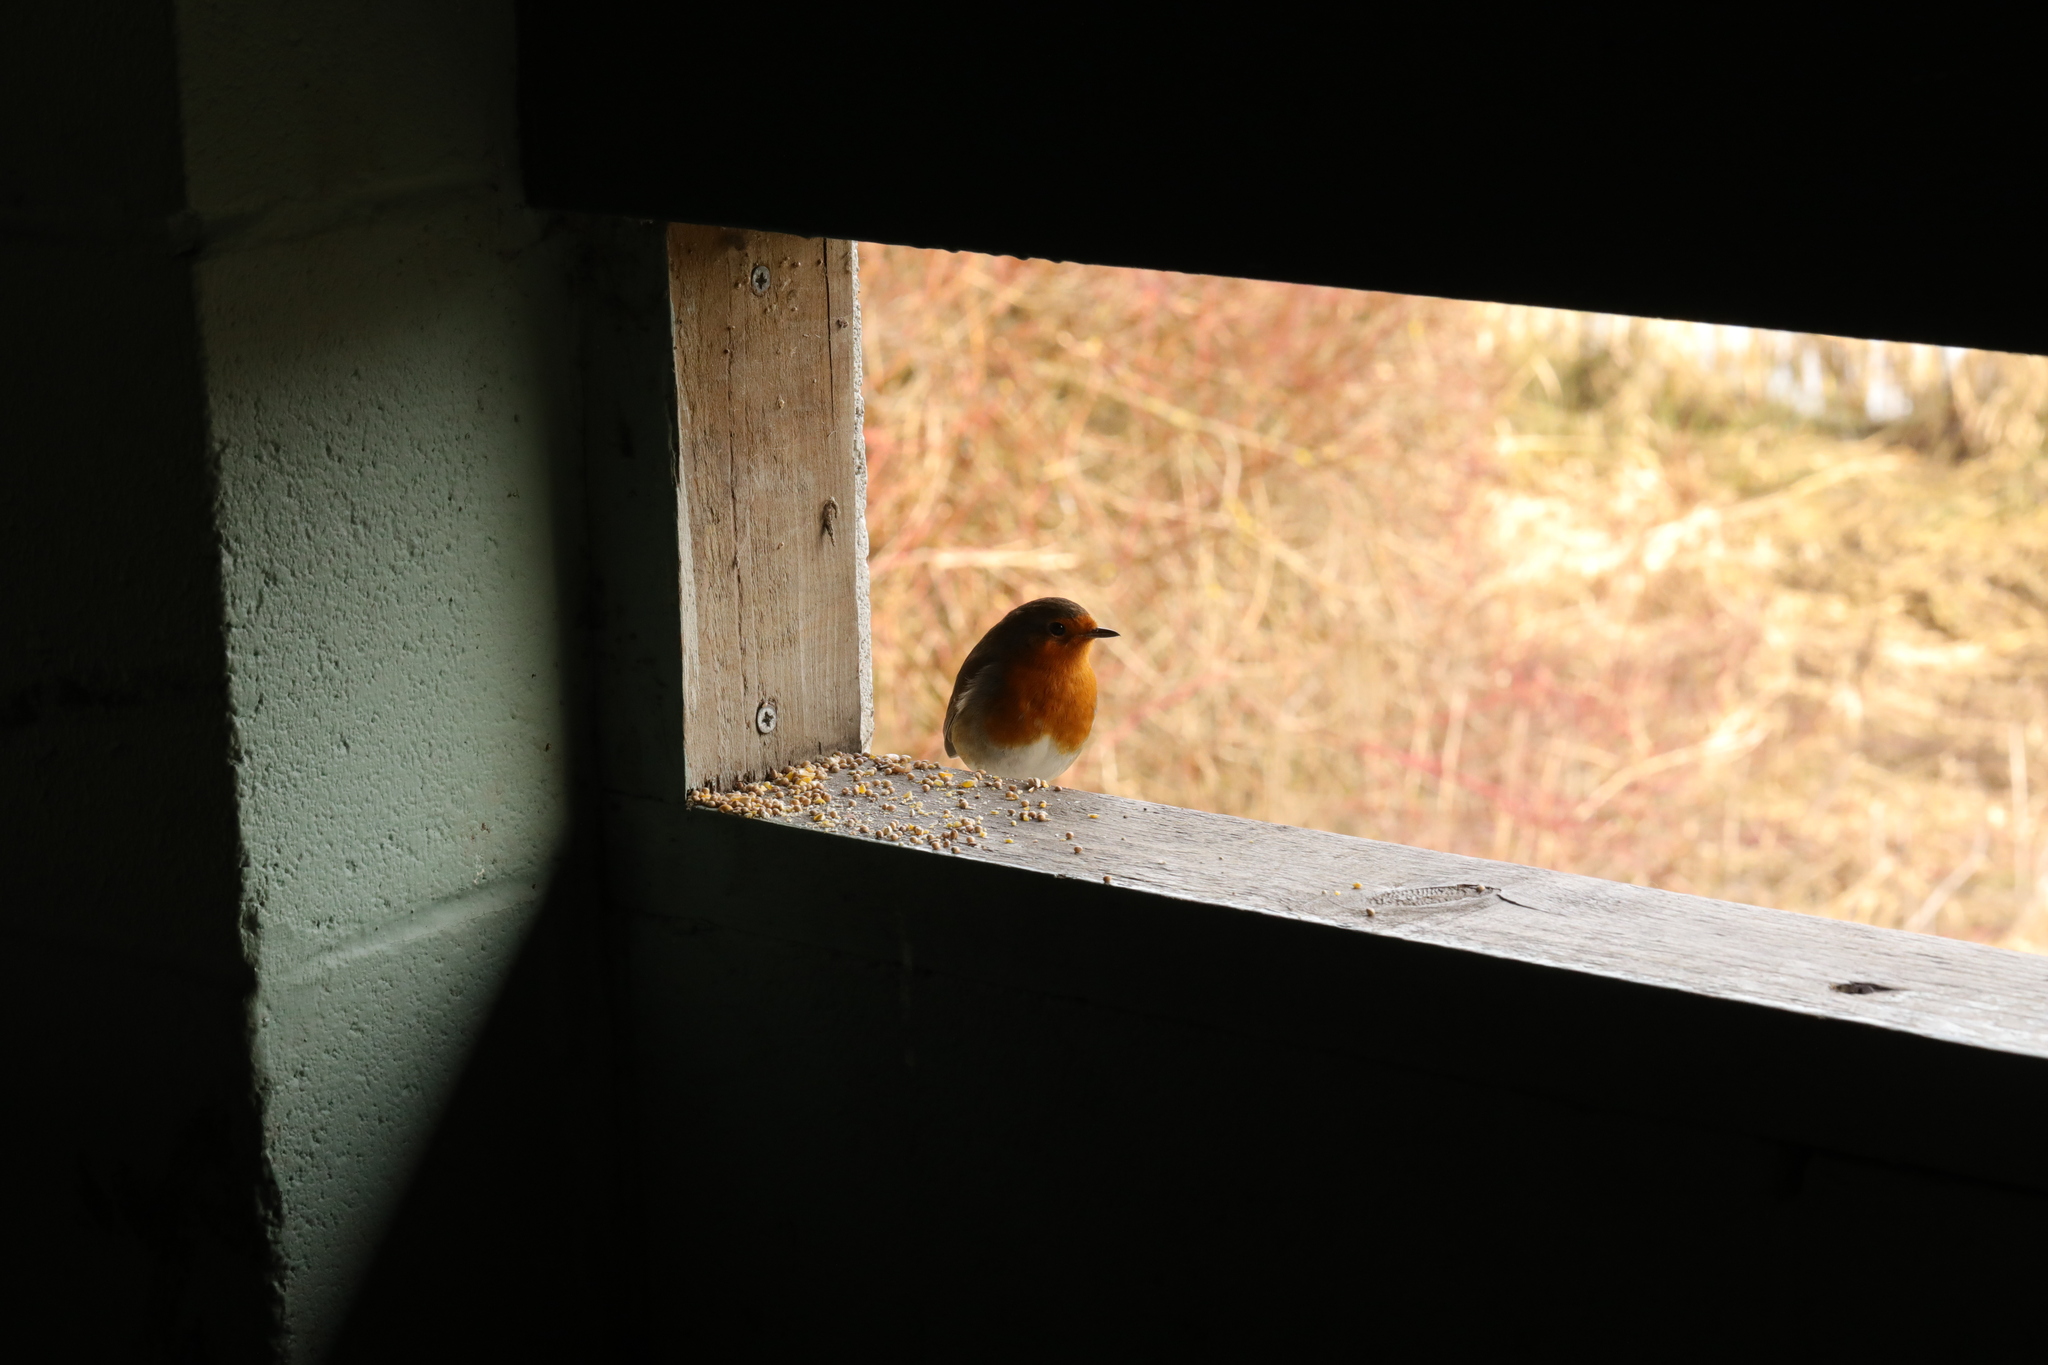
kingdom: Animalia
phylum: Chordata
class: Aves
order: Passeriformes
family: Muscicapidae
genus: Erithacus
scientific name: Erithacus rubecula
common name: European robin
